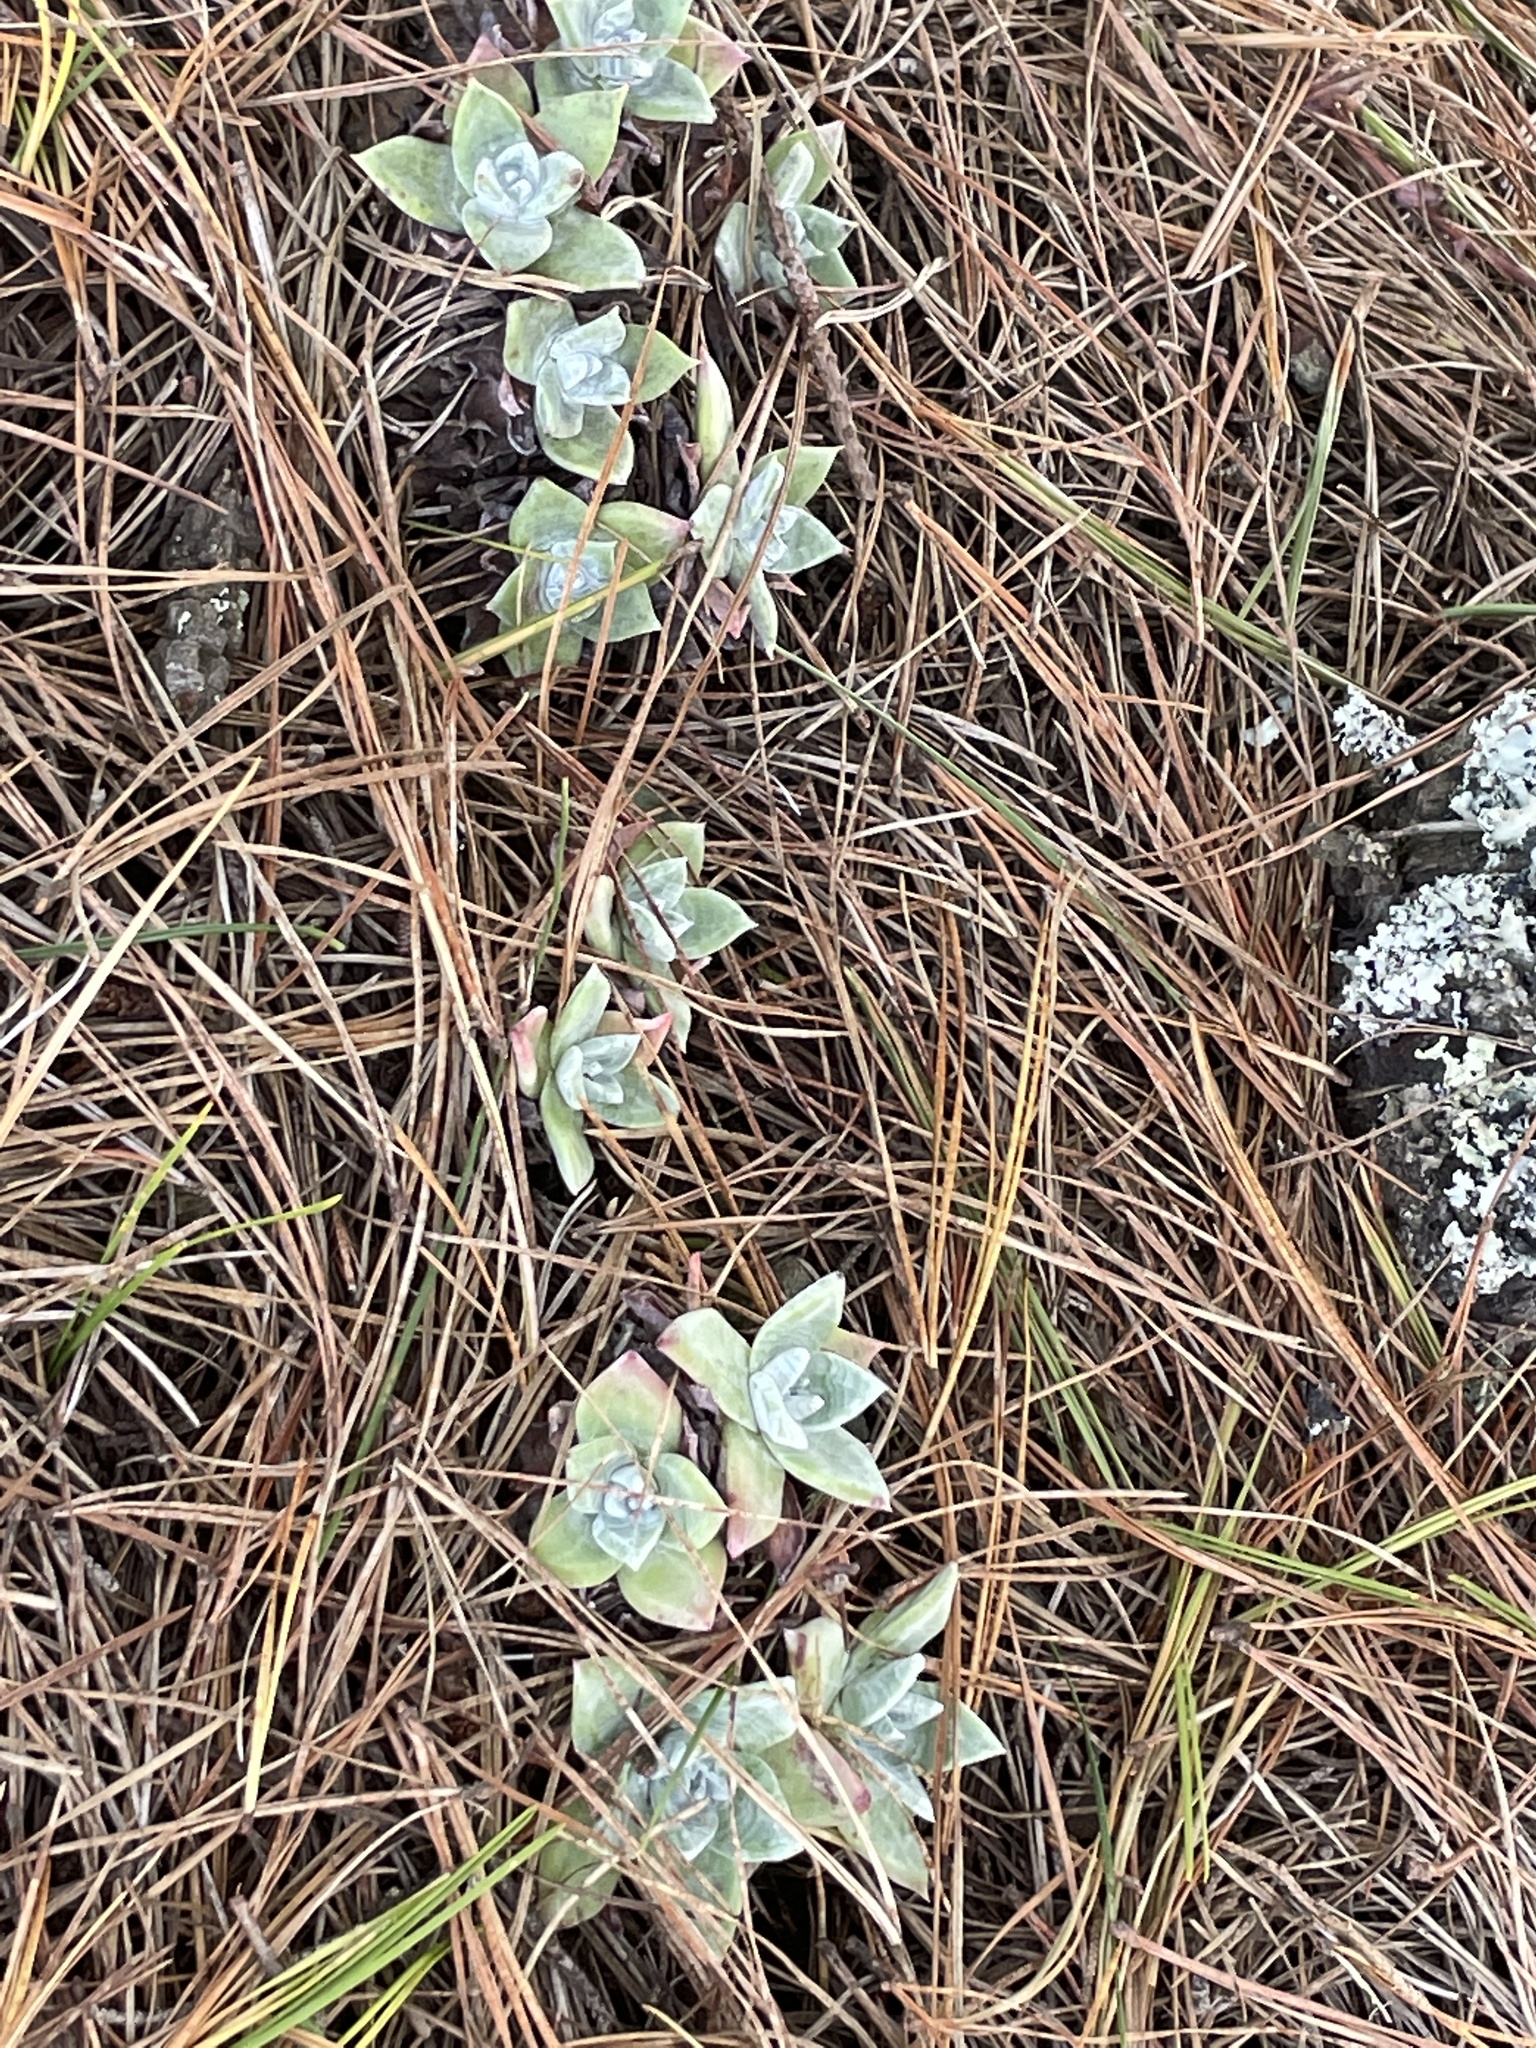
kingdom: Plantae
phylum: Tracheophyta
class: Magnoliopsida
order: Saxifragales
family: Crassulaceae
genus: Dudleya
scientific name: Dudleya farinosa
